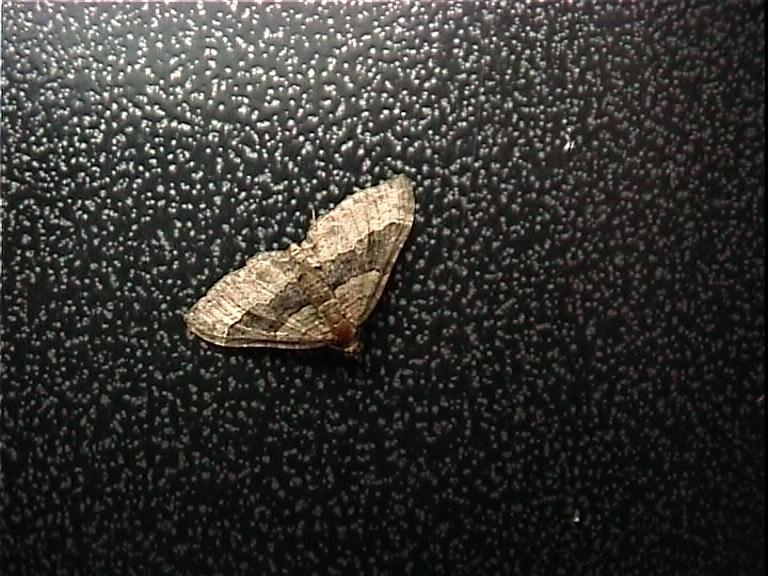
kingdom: Animalia
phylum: Arthropoda
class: Insecta
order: Lepidoptera
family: Geometridae
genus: Epyaxa
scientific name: Epyaxa lucidata
